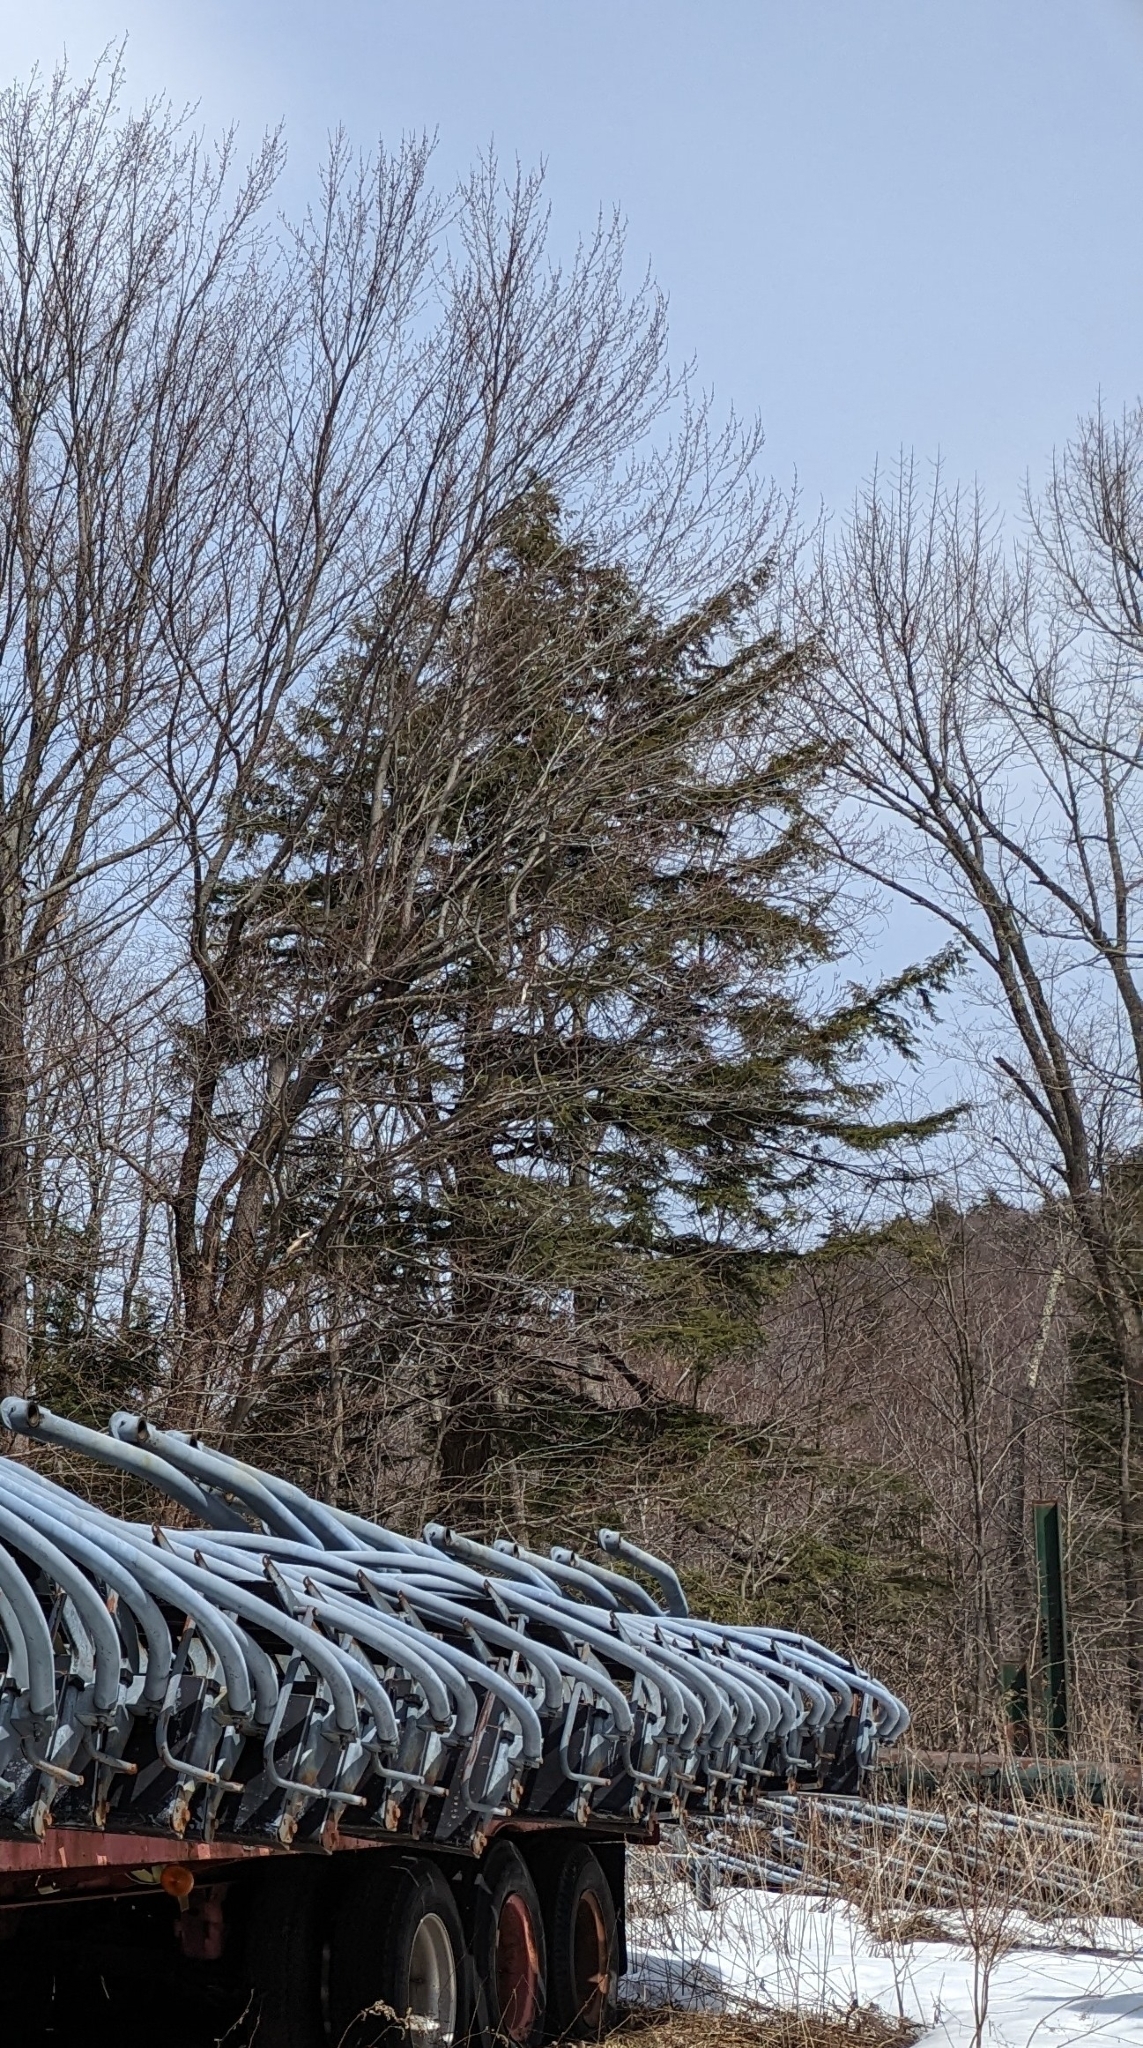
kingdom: Plantae
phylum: Tracheophyta
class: Pinopsida
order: Pinales
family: Pinaceae
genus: Tsuga
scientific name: Tsuga canadensis
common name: Eastern hemlock
